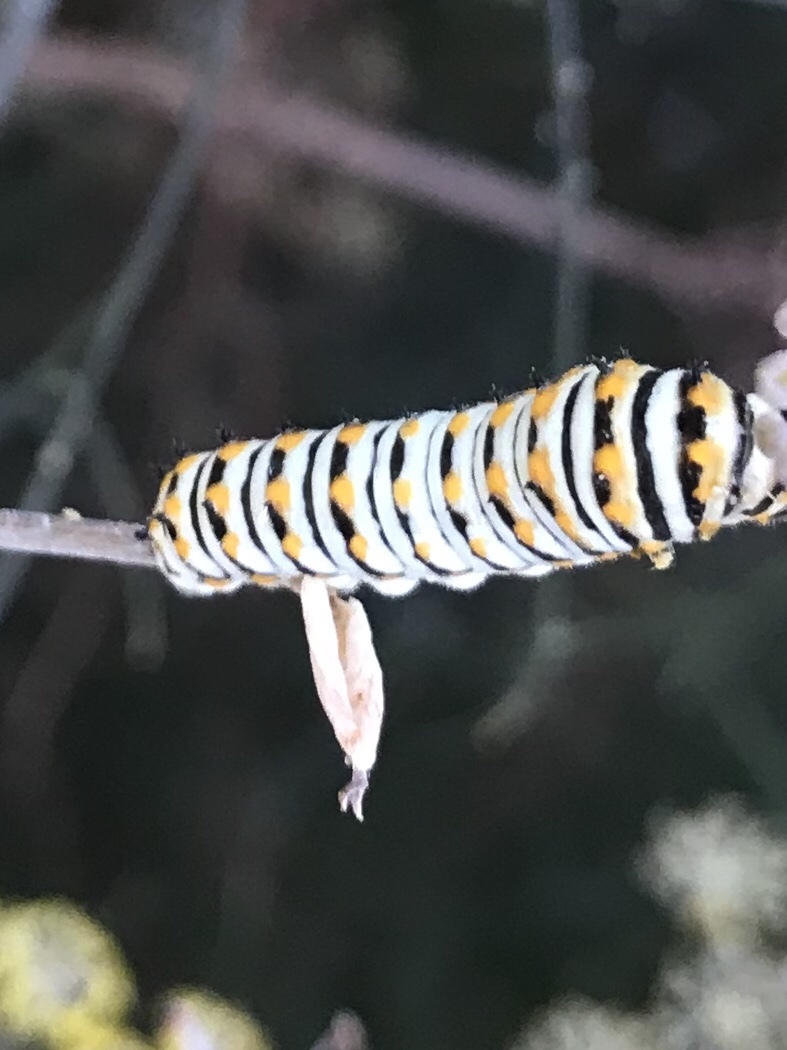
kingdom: Animalia
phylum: Arthropoda
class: Insecta
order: Lepidoptera
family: Papilionidae
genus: Papilio
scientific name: Papilio polyxenes
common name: Black swallowtail
